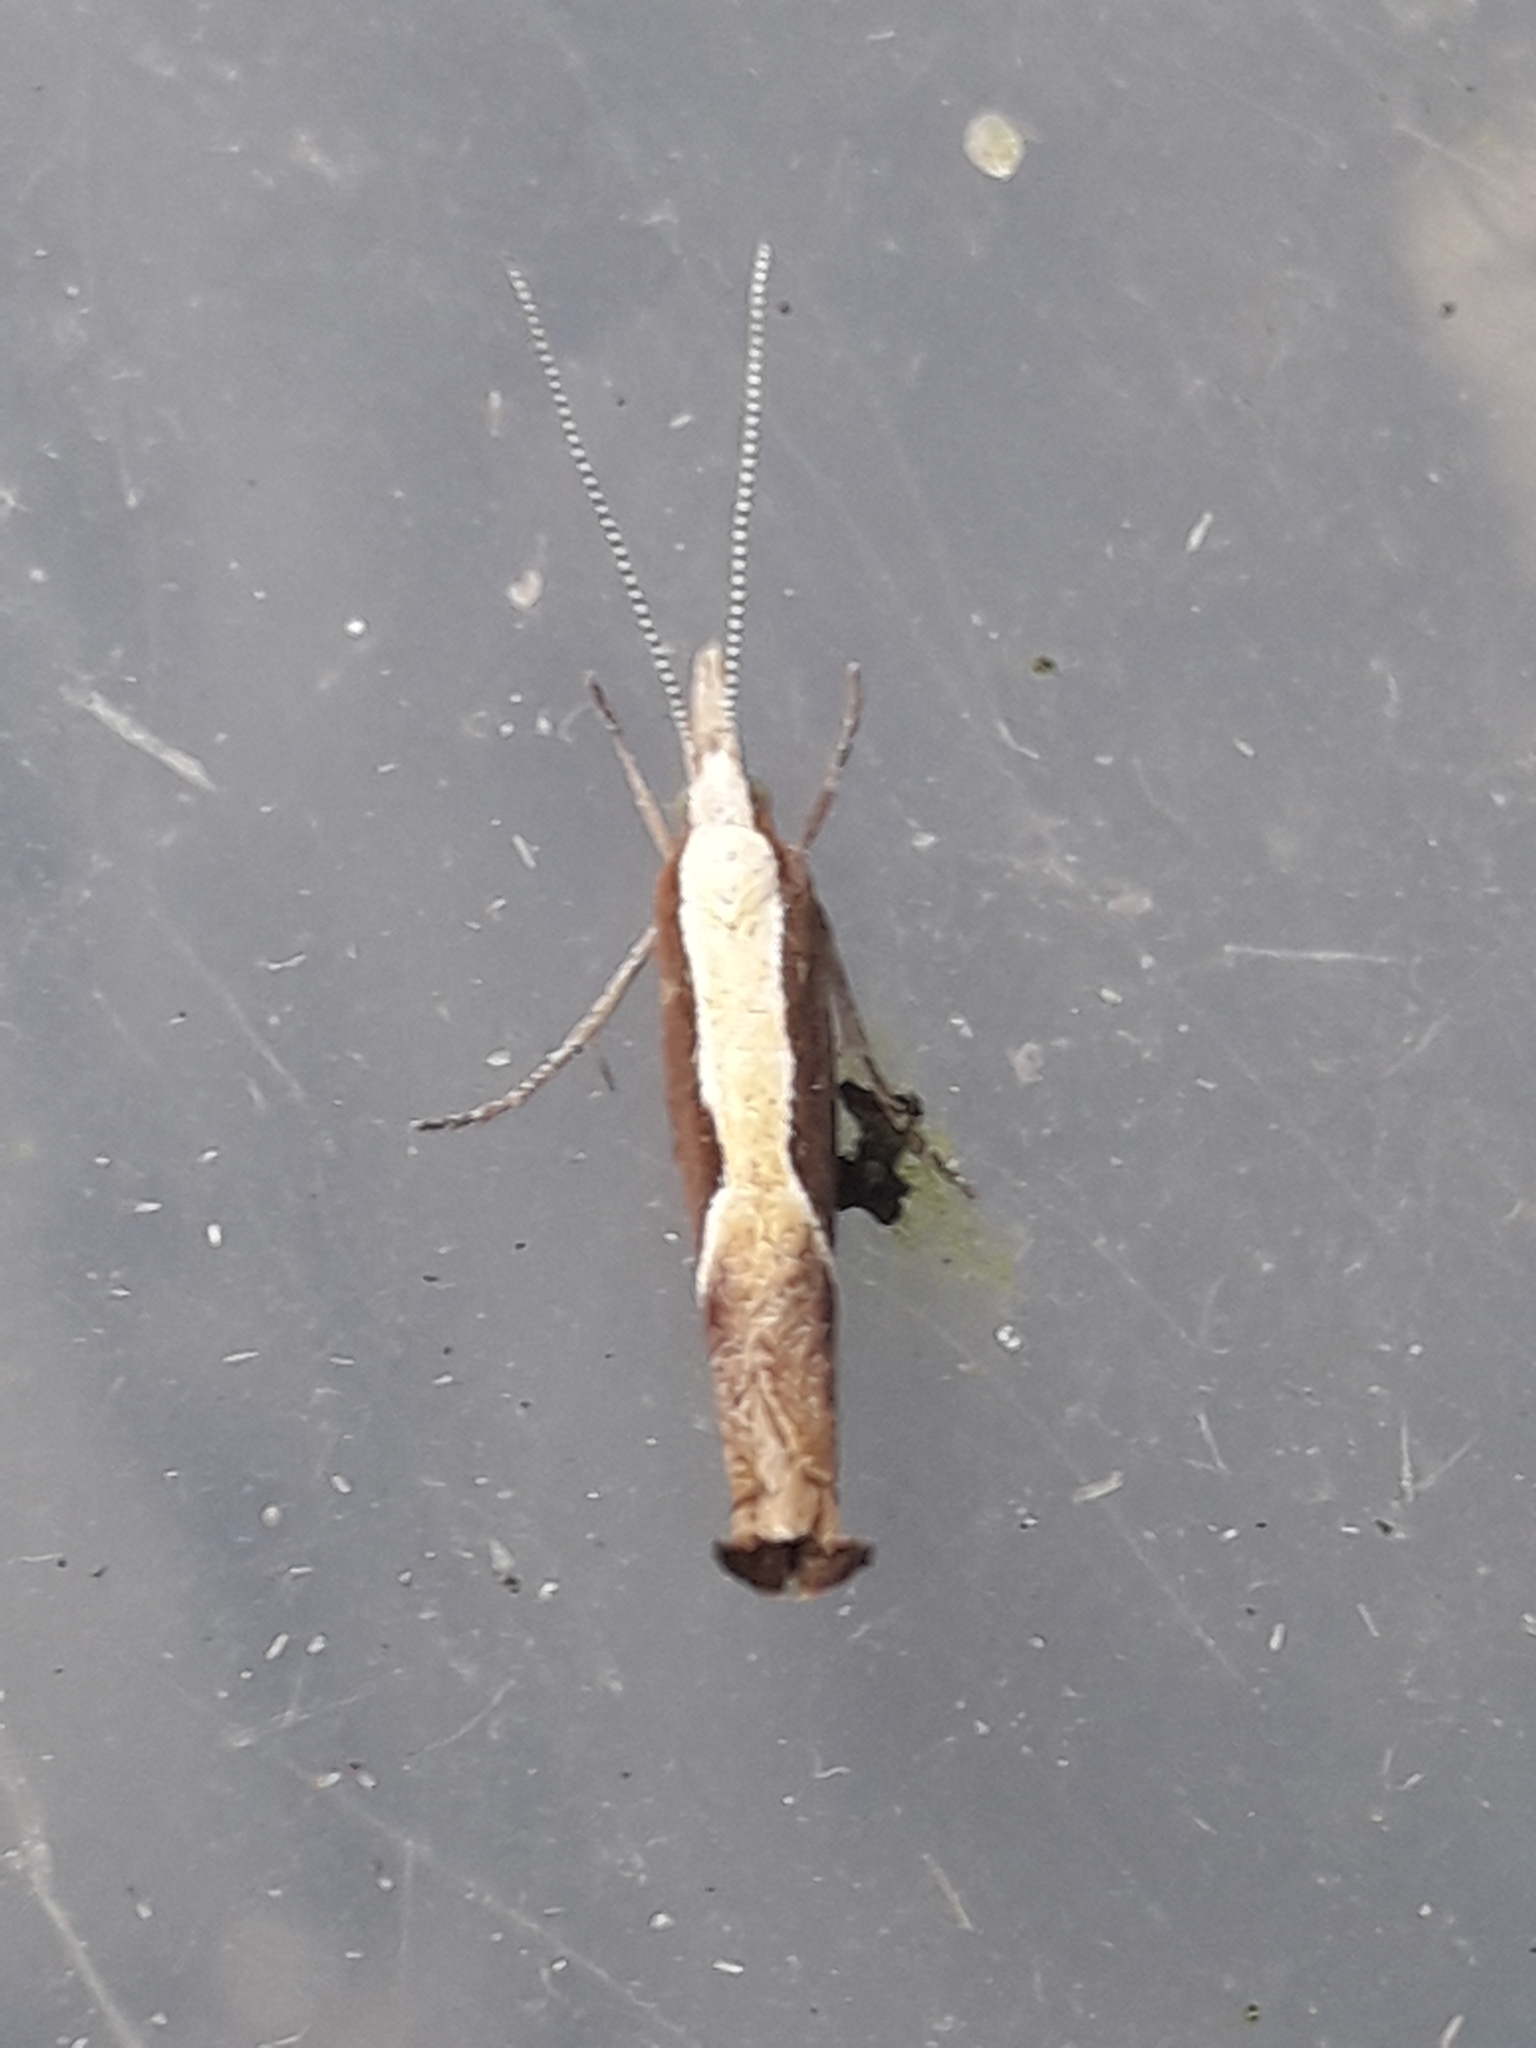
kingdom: Animalia
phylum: Arthropoda
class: Insecta
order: Lepidoptera
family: Ypsolophidae
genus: Ypsolopha
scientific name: Ypsolopha dentella
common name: Honeysuckle moth
